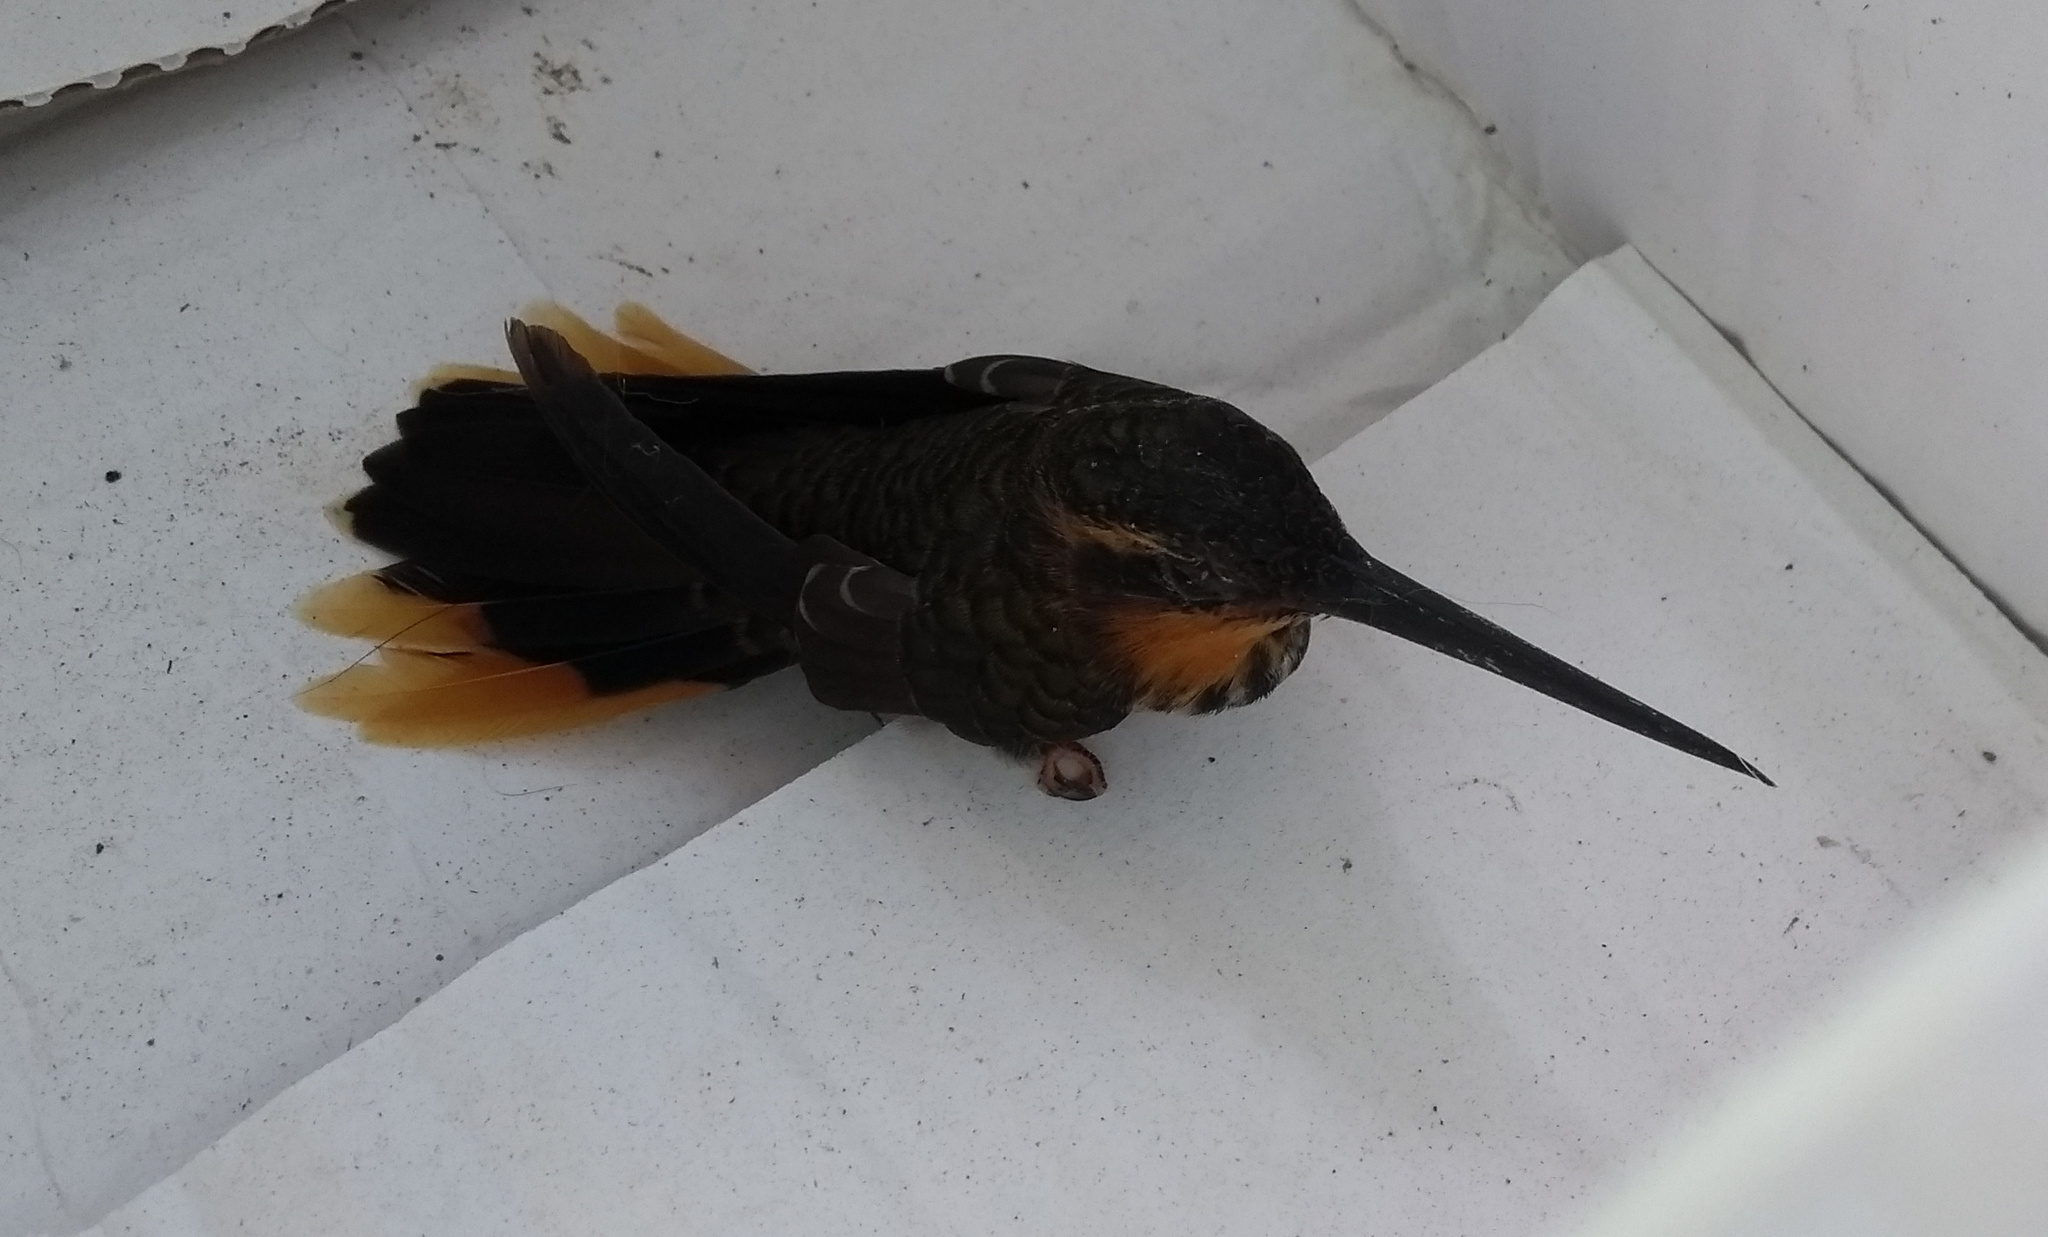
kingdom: Animalia
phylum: Chordata
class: Aves
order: Apodiformes
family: Trochilidae
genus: Ramphodon
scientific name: Ramphodon naevius
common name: Saw-billed hermit
